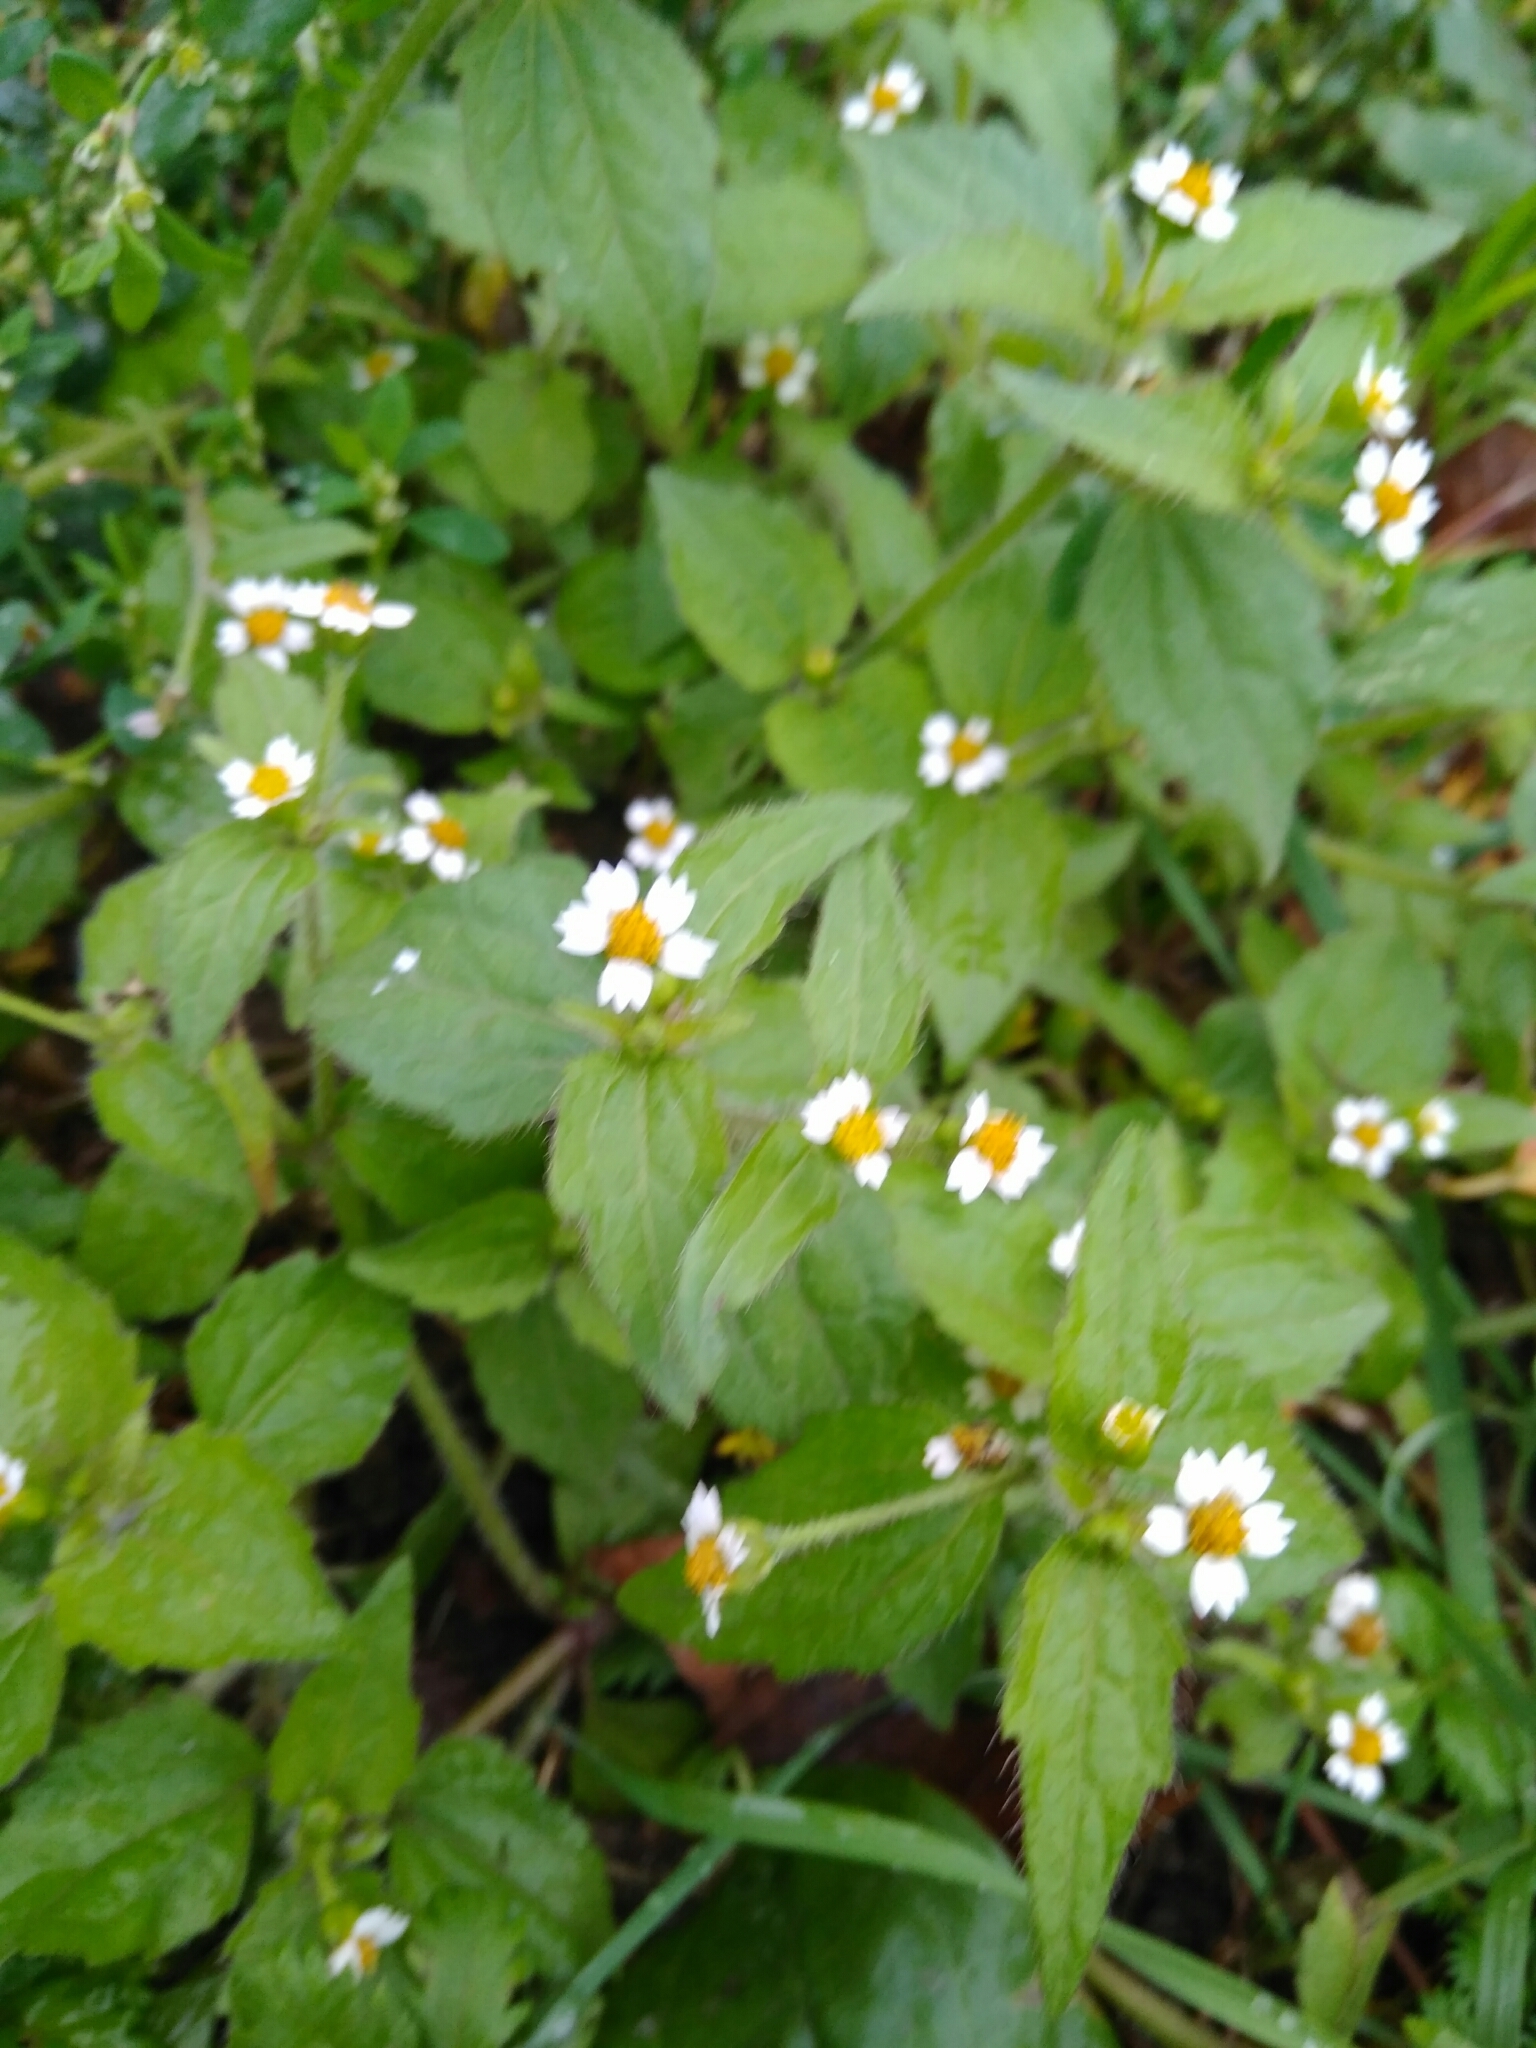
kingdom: Plantae
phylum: Tracheophyta
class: Magnoliopsida
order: Asterales
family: Asteraceae
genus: Galinsoga
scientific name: Galinsoga quadriradiata
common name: Shaggy soldier
